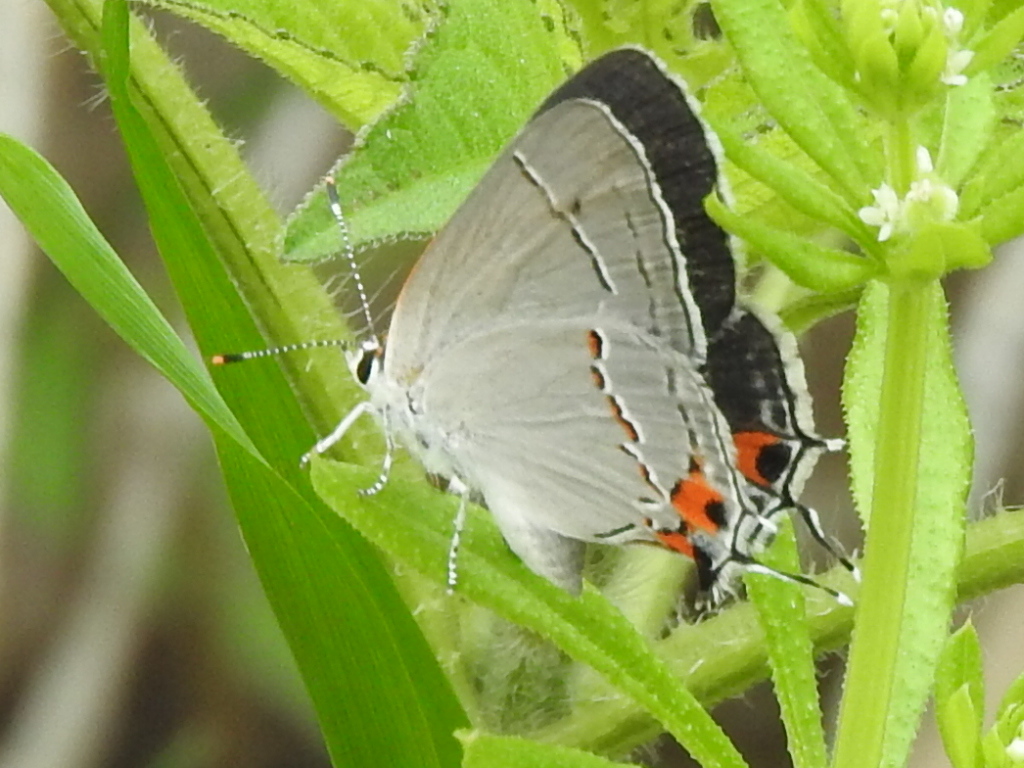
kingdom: Animalia
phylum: Arthropoda
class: Insecta
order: Lepidoptera
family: Lycaenidae
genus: Strymon
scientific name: Strymon melinus
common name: Gray hairstreak
